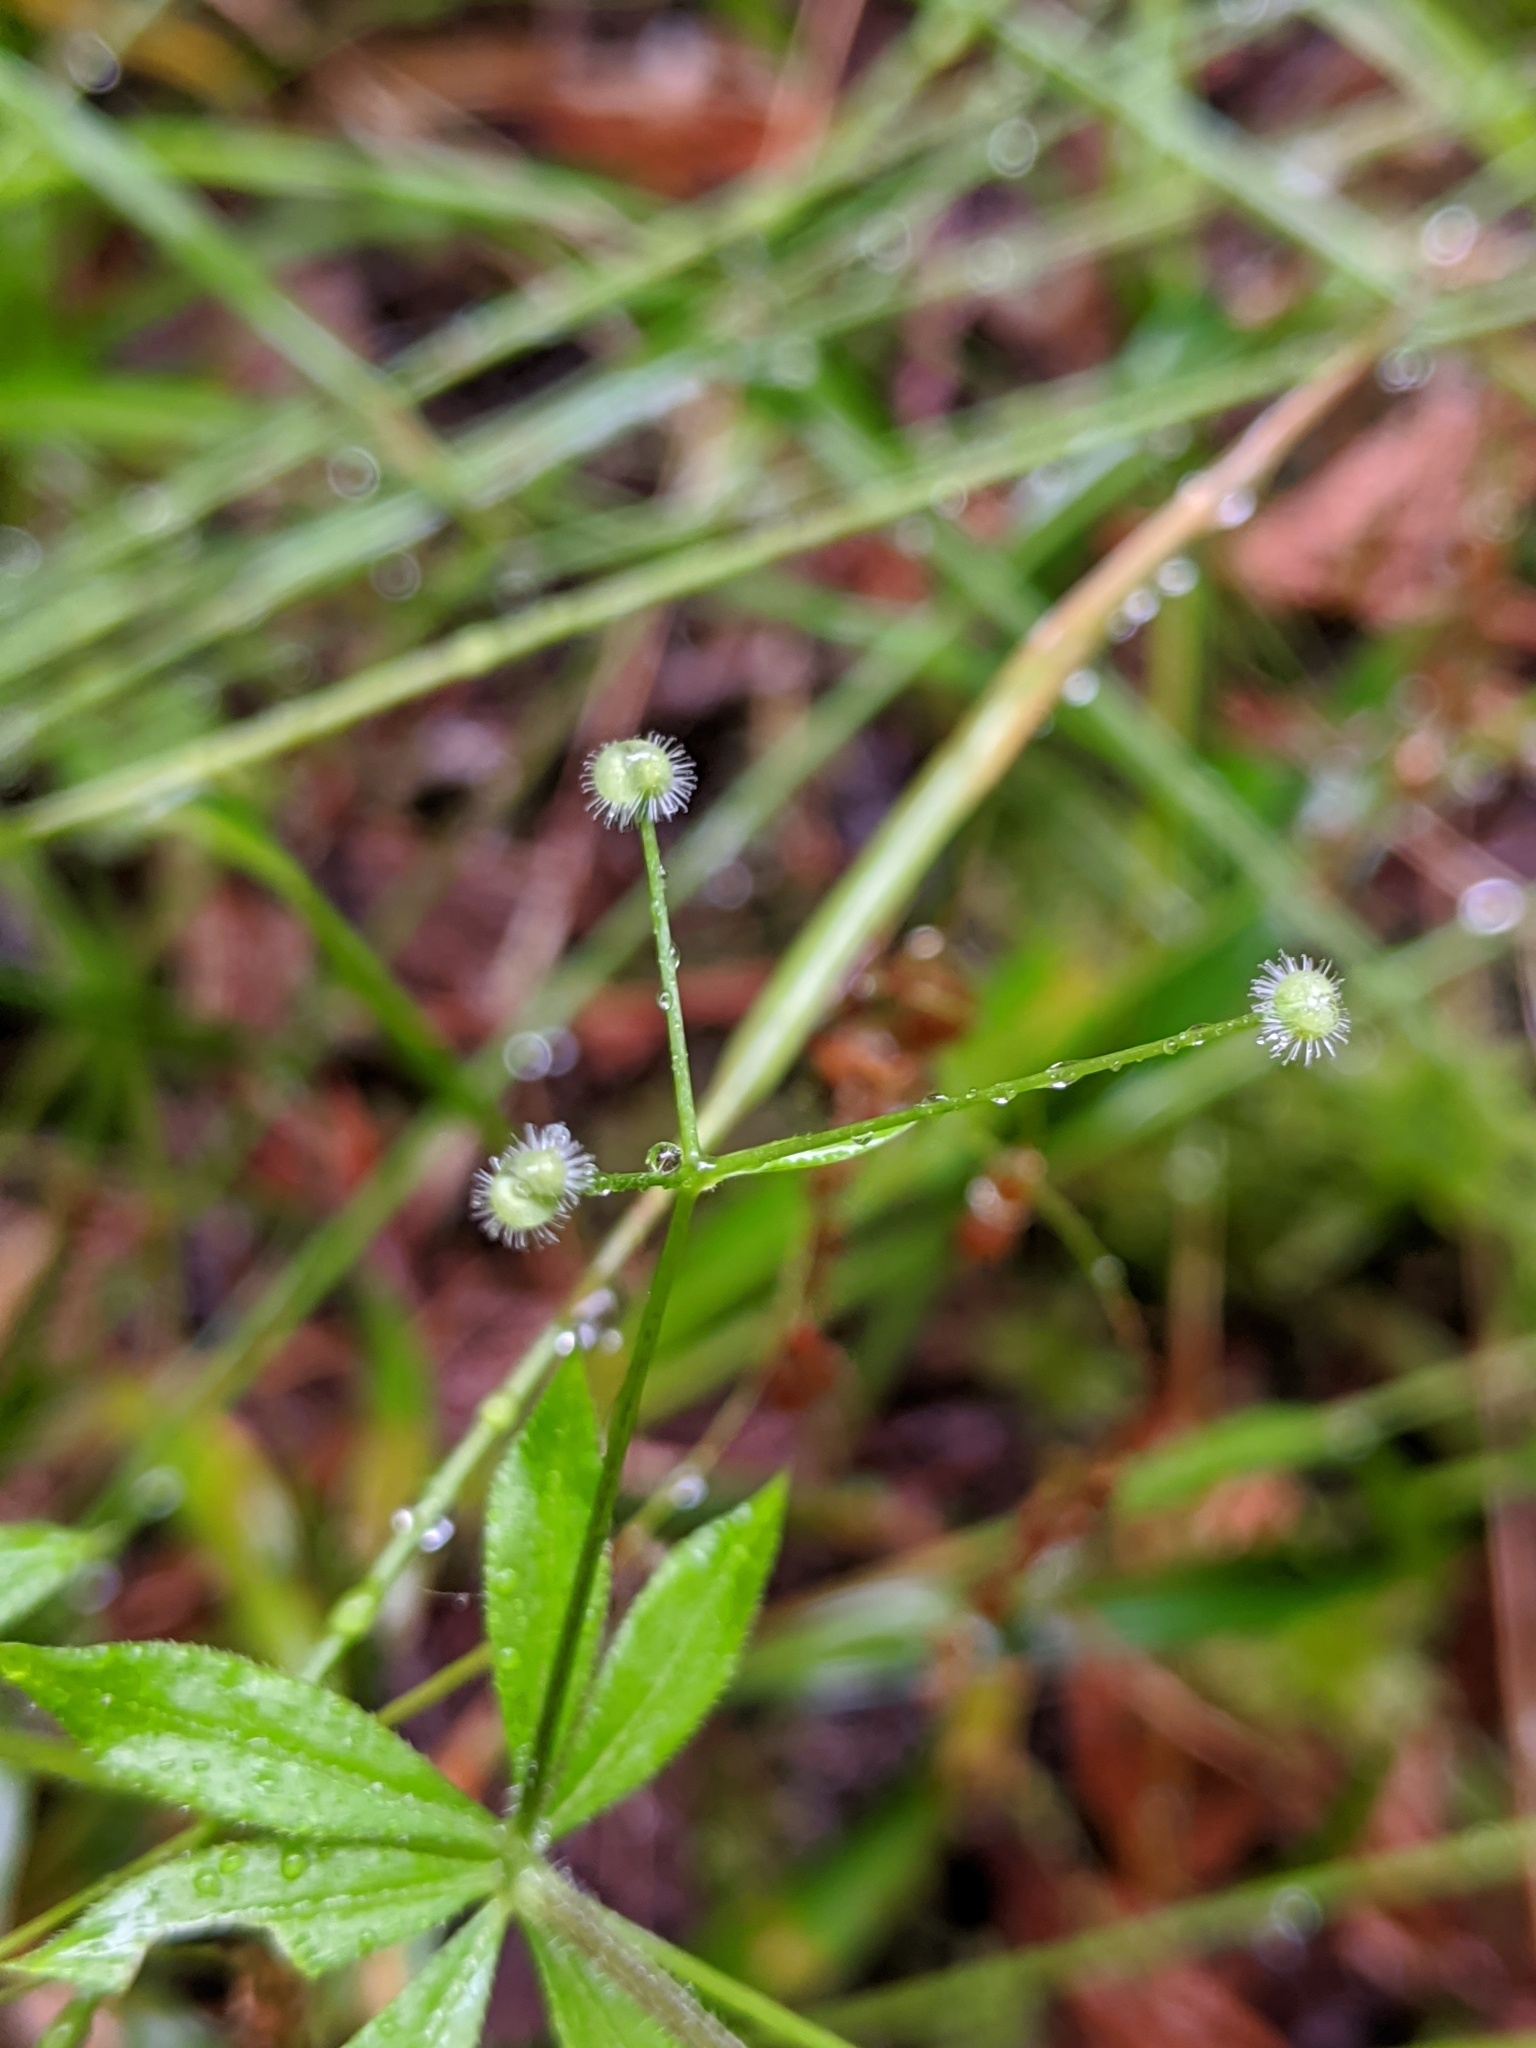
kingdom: Plantae
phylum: Tracheophyta
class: Magnoliopsida
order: Gentianales
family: Rubiaceae
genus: Galium
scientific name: Galium triflorum
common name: Fragrant bedstraw
